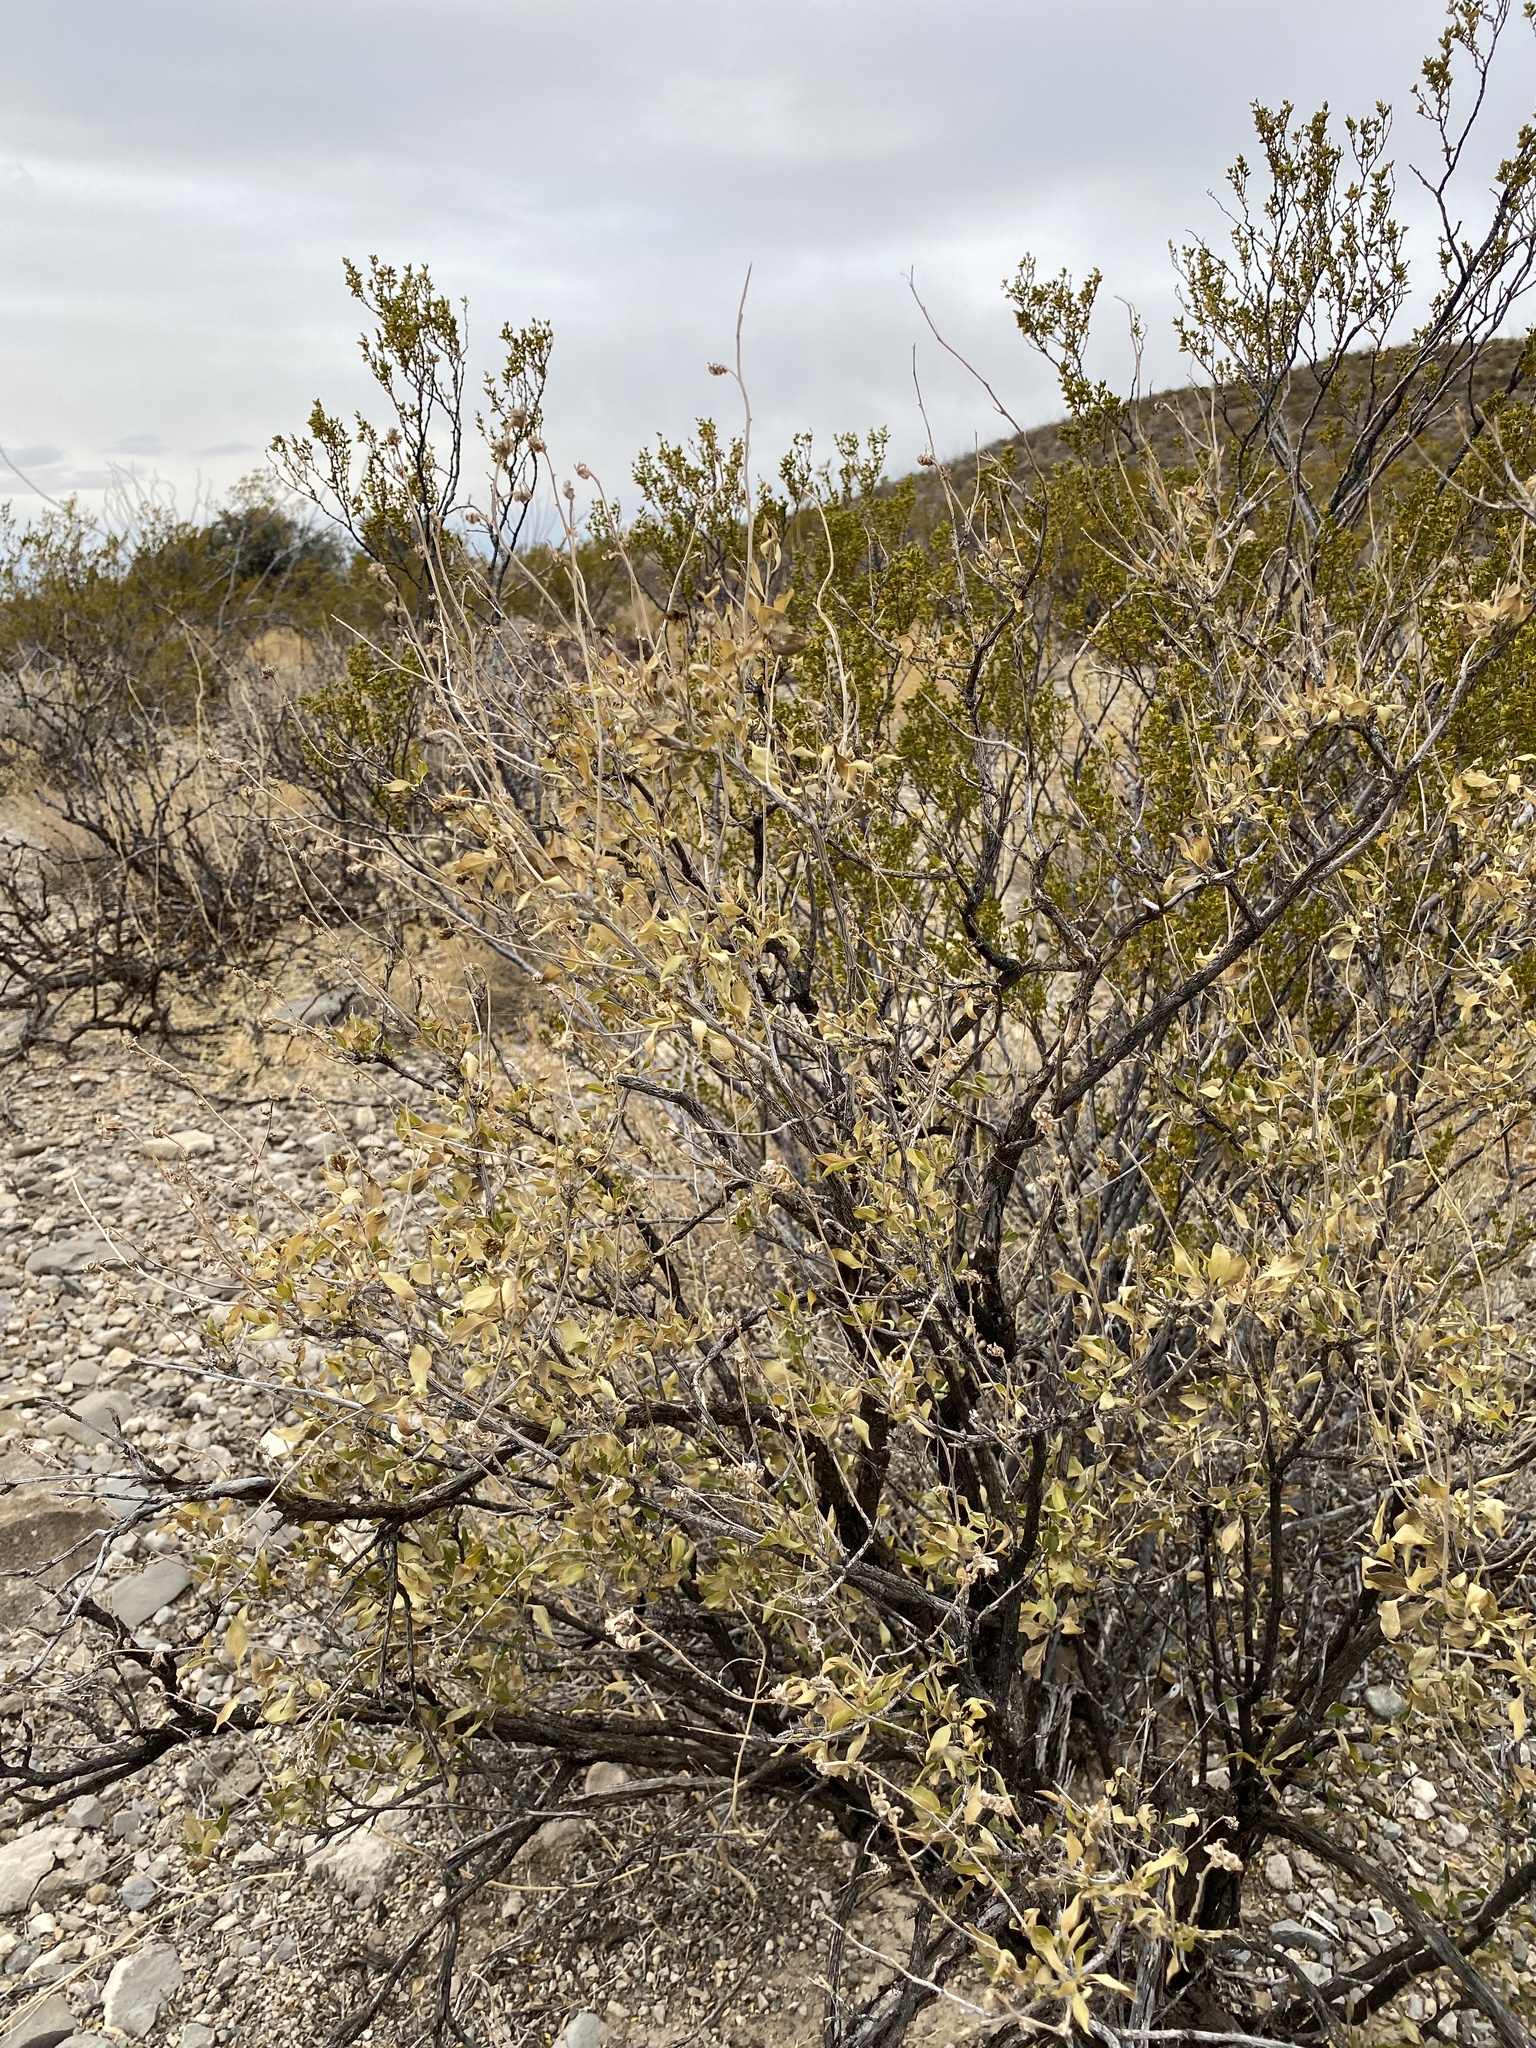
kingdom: Plantae
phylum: Tracheophyta
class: Magnoliopsida
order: Asterales
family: Asteraceae
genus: Flourensia
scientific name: Flourensia cernua
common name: Varnishbush
